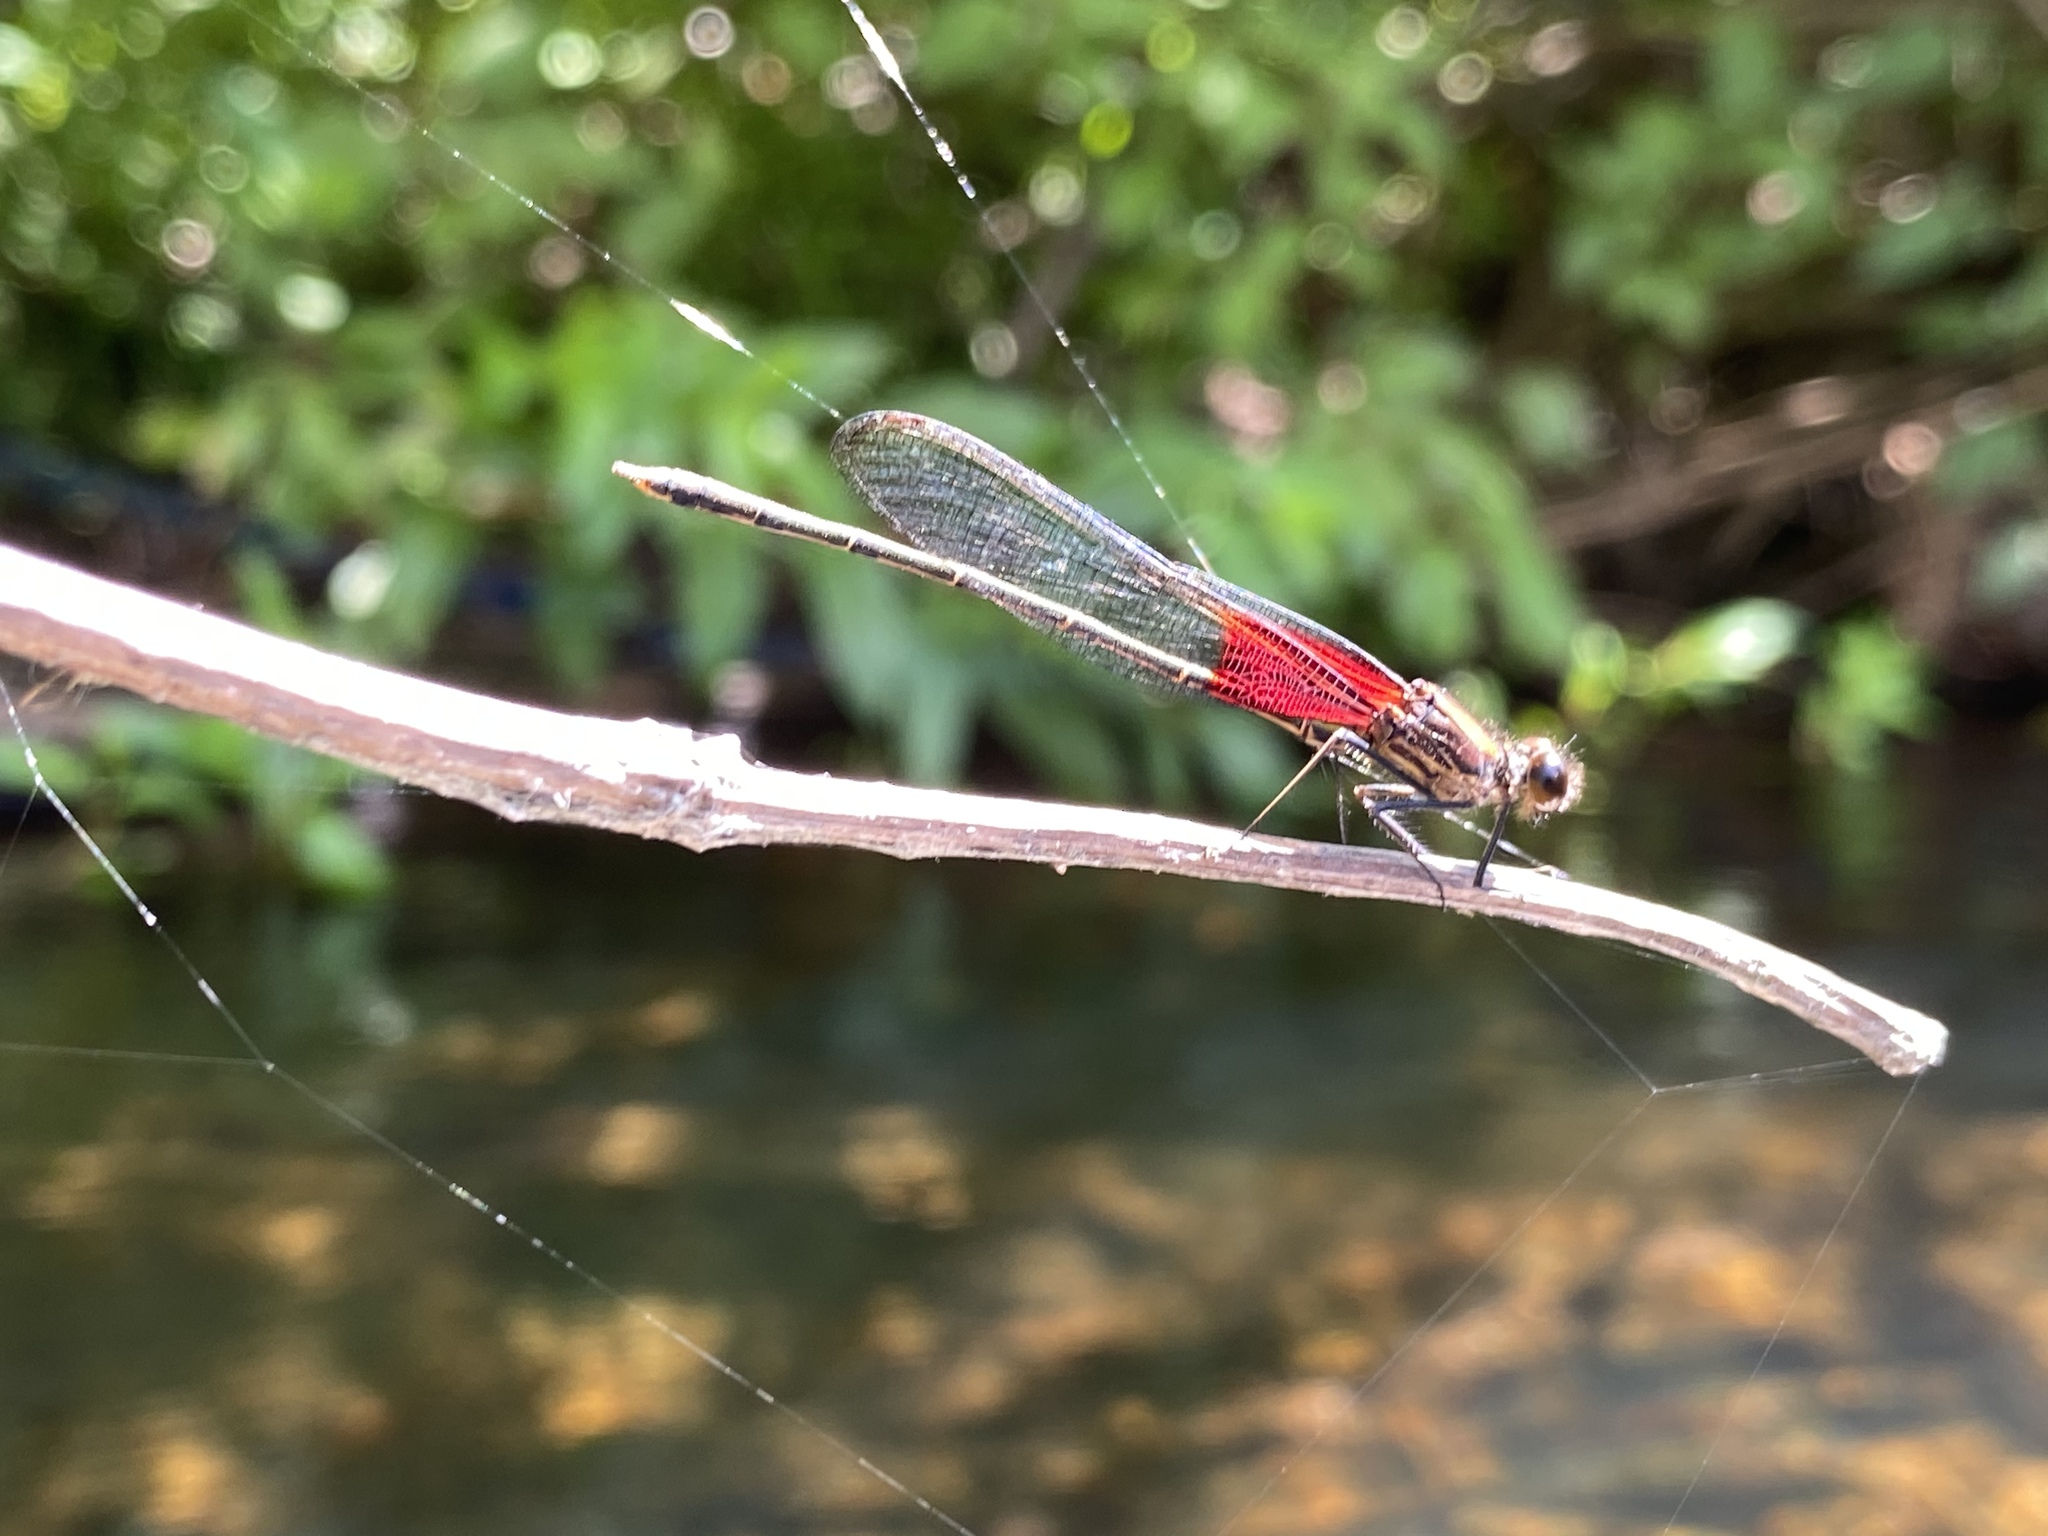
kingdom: Animalia
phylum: Arthropoda
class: Insecta
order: Odonata
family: Calopterygidae
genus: Hetaerina
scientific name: Hetaerina americana
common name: American rubyspot
